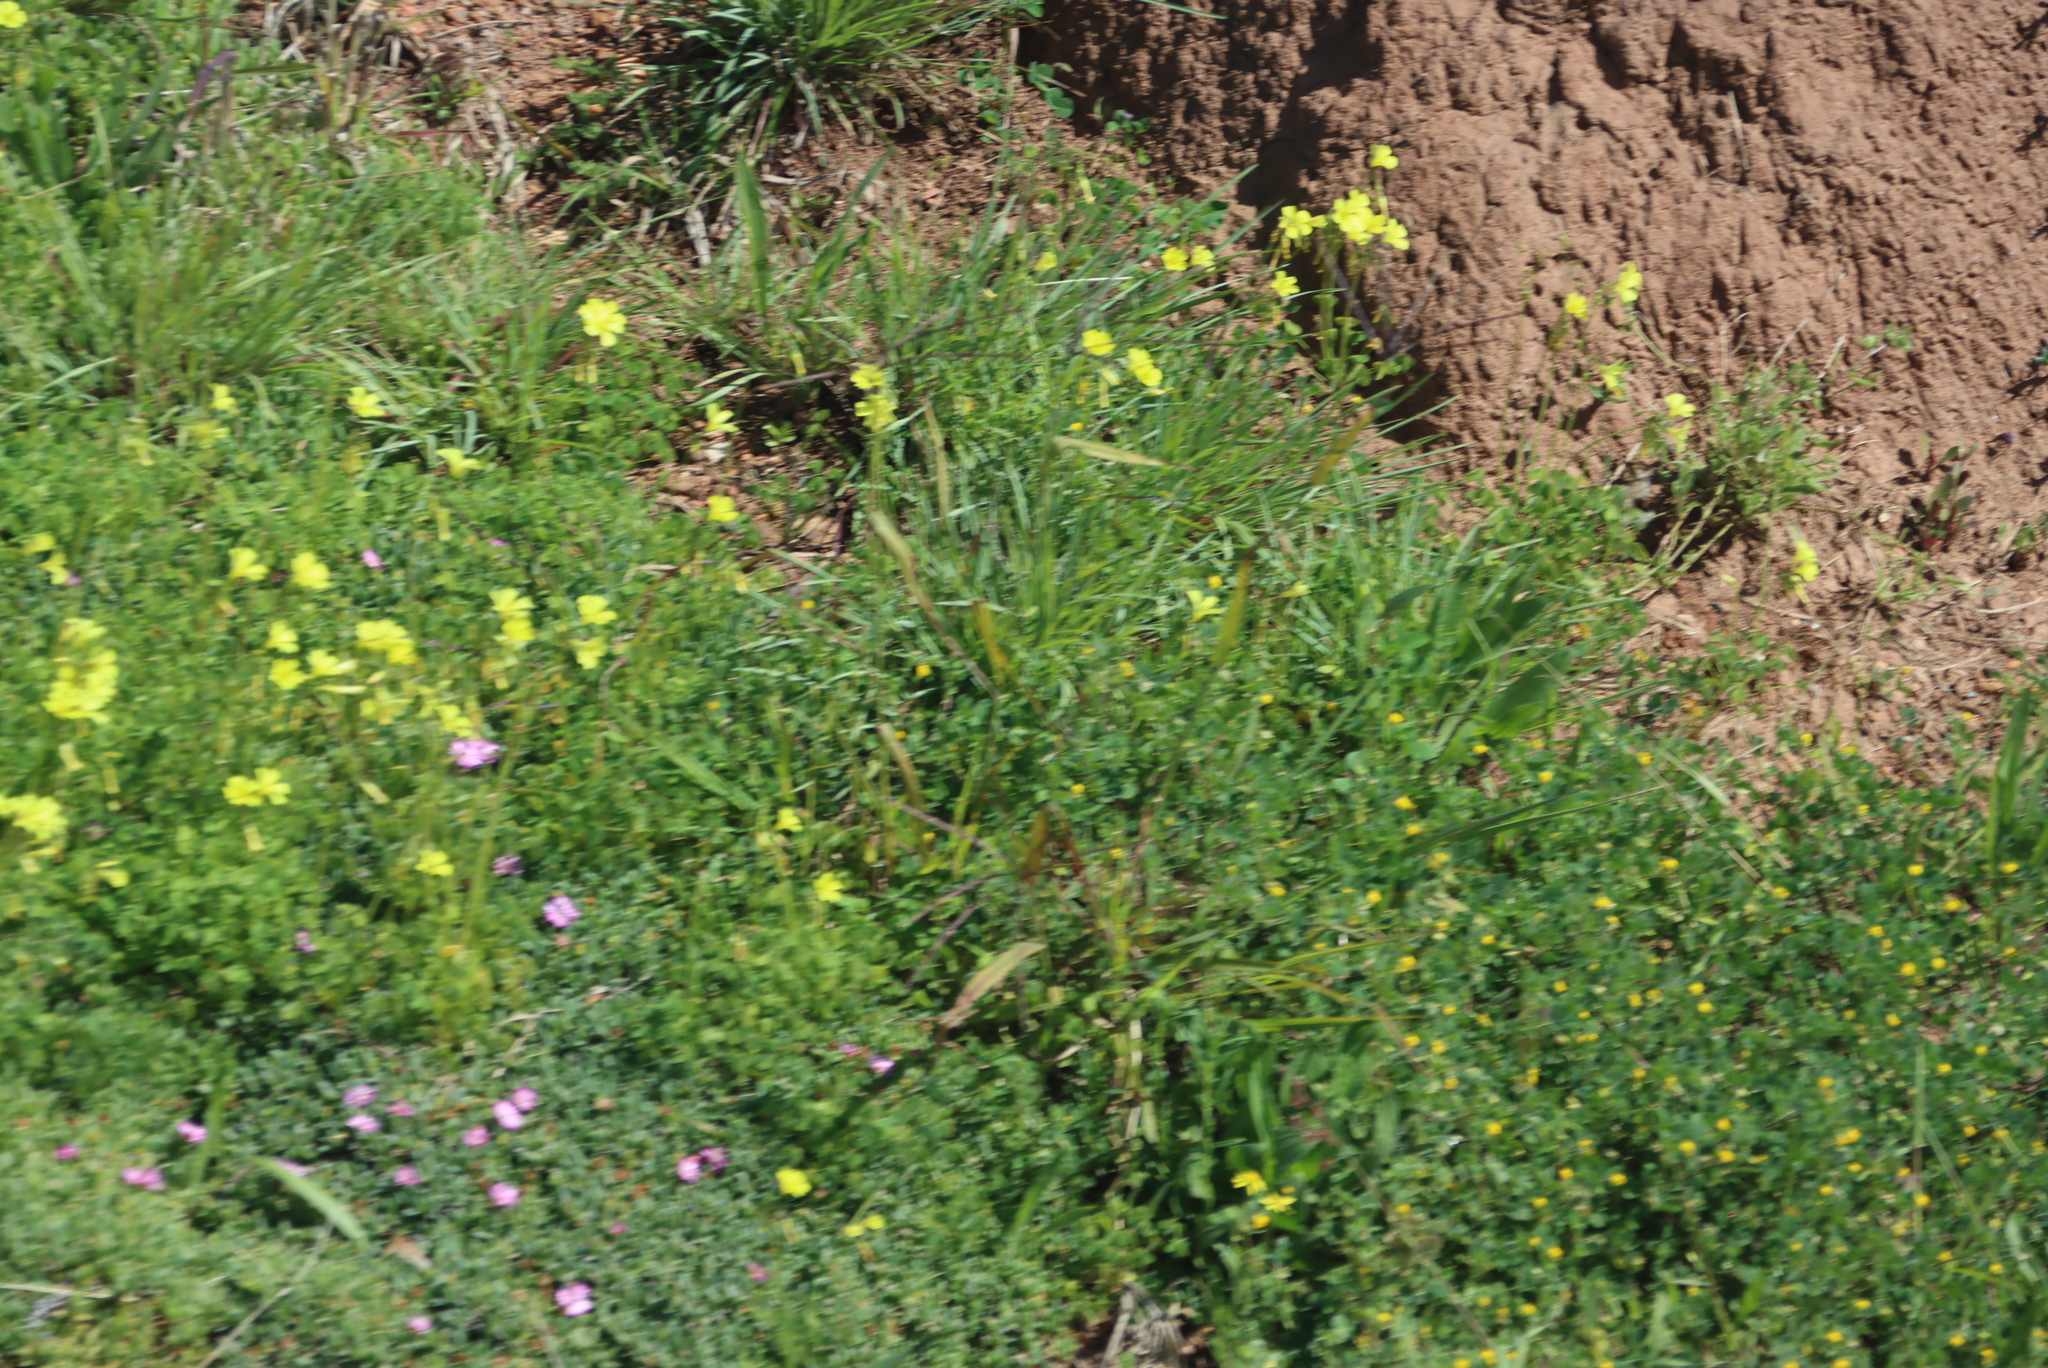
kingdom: Plantae
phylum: Tracheophyta
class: Magnoliopsida
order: Oxalidales
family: Oxalidaceae
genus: Oxalis
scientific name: Oxalis pes-caprae
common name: Bermuda-buttercup
